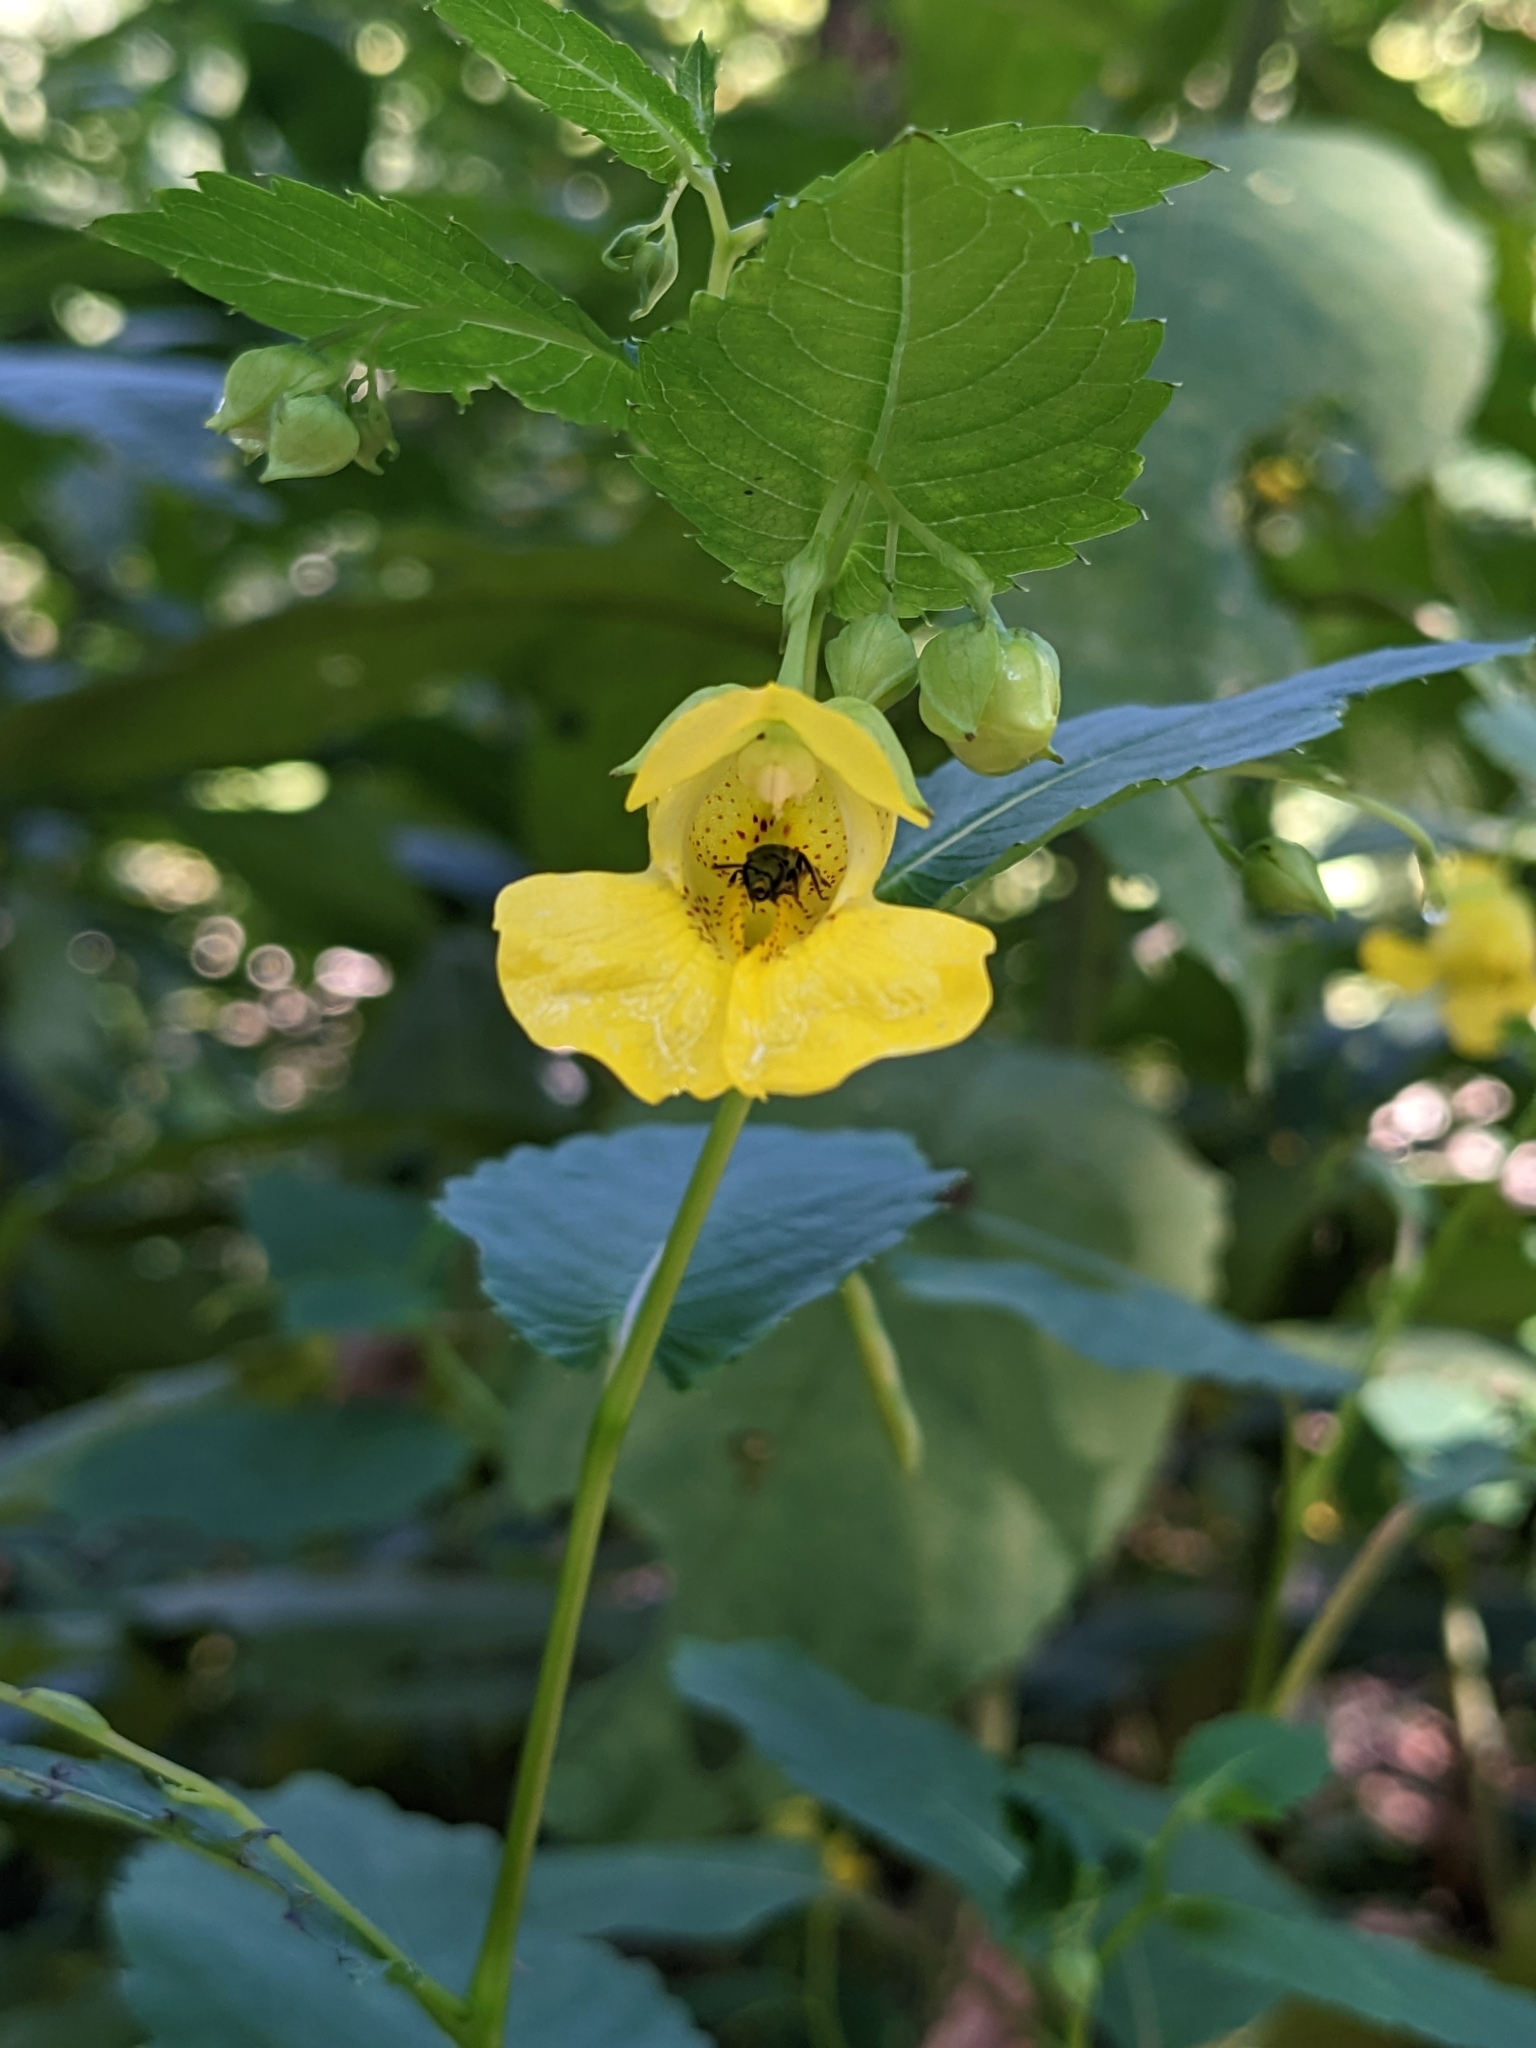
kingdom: Plantae
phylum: Tracheophyta
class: Magnoliopsida
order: Ericales
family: Balsaminaceae
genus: Impatiens
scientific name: Impatiens pallida
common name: Pale snapweed
